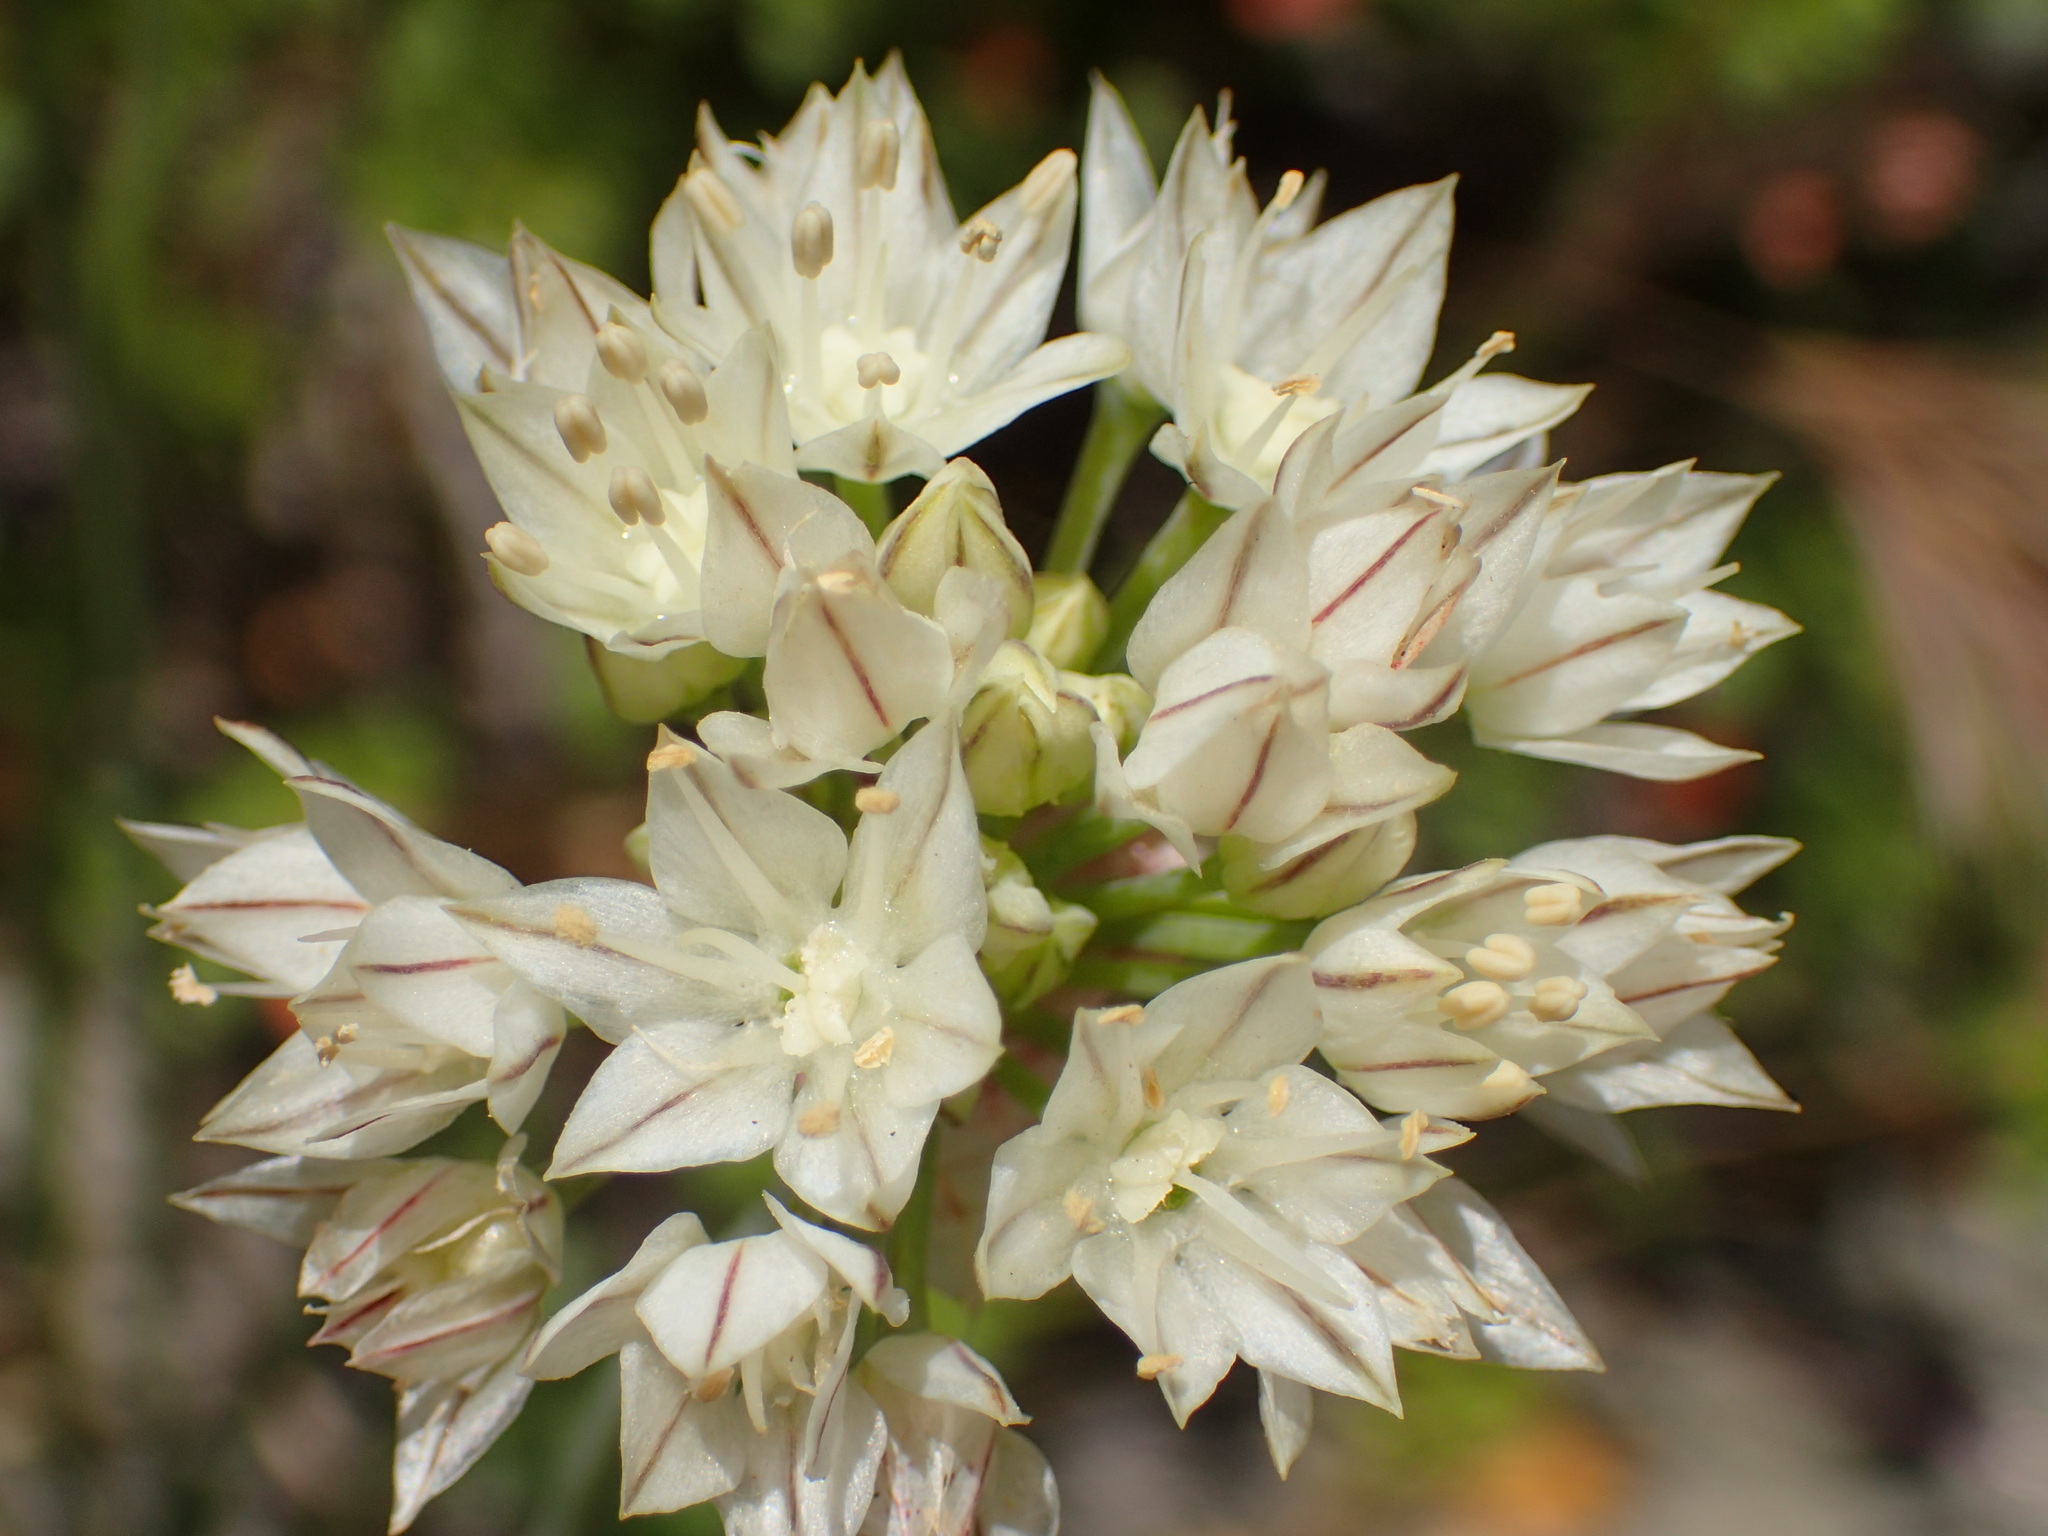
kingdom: Plantae
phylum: Tracheophyta
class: Liliopsida
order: Asparagales
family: Amaryllidaceae
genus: Allium
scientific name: Allium haematochiton
